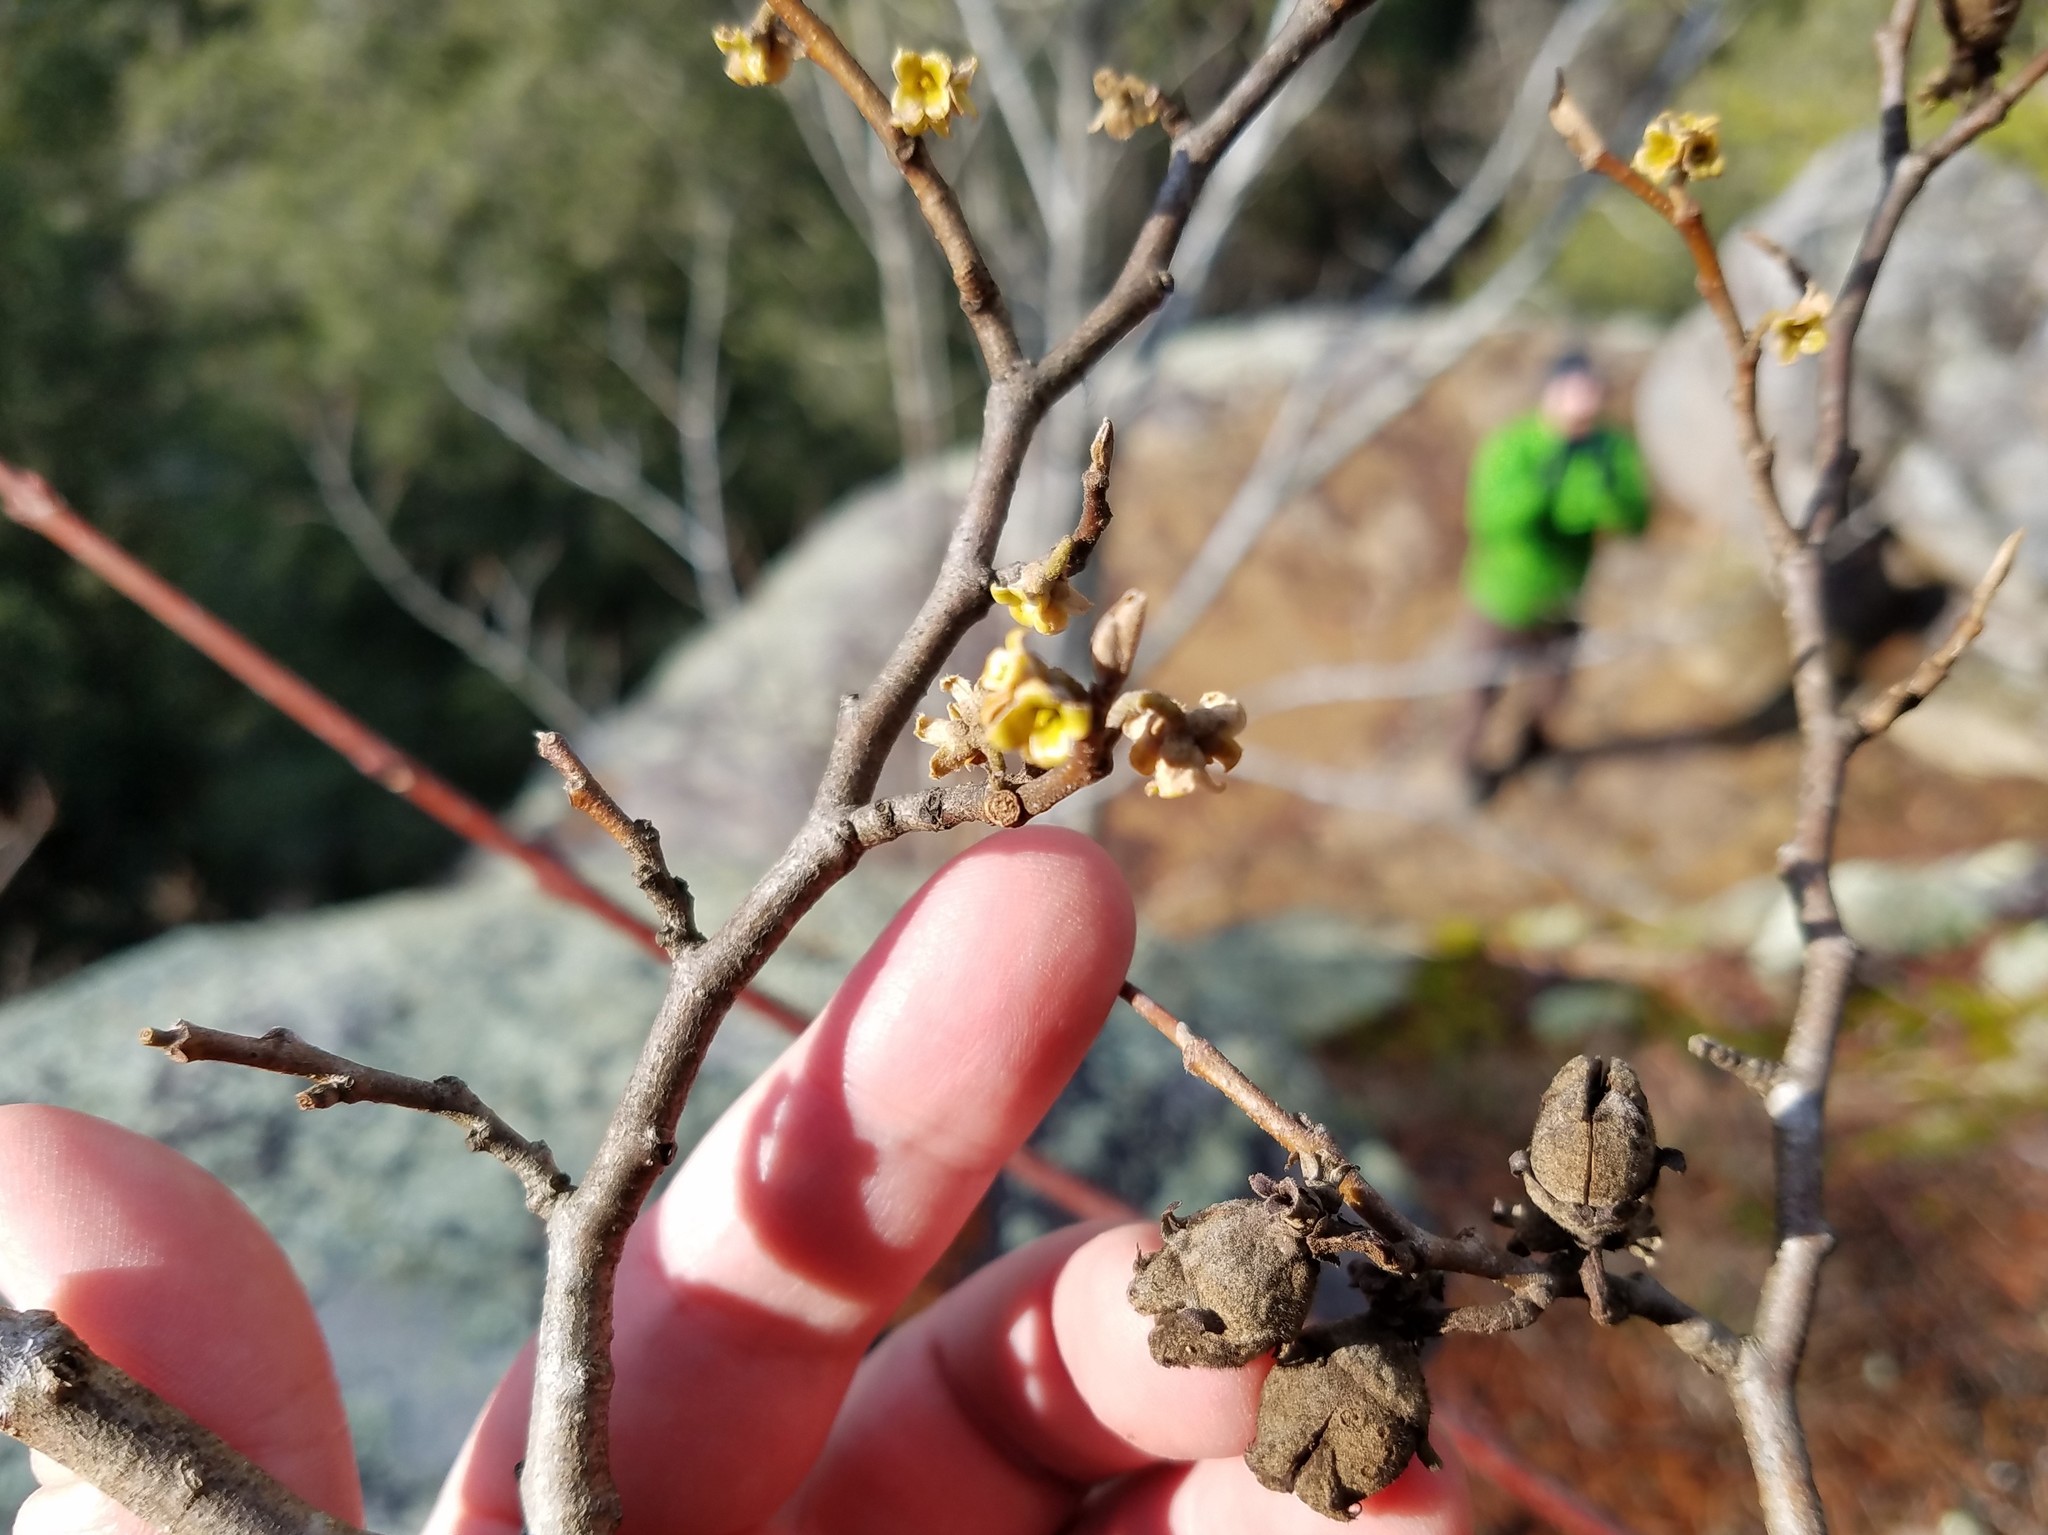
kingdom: Plantae
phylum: Tracheophyta
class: Magnoliopsida
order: Saxifragales
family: Hamamelidaceae
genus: Hamamelis
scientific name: Hamamelis virginiana
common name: Witch-hazel
